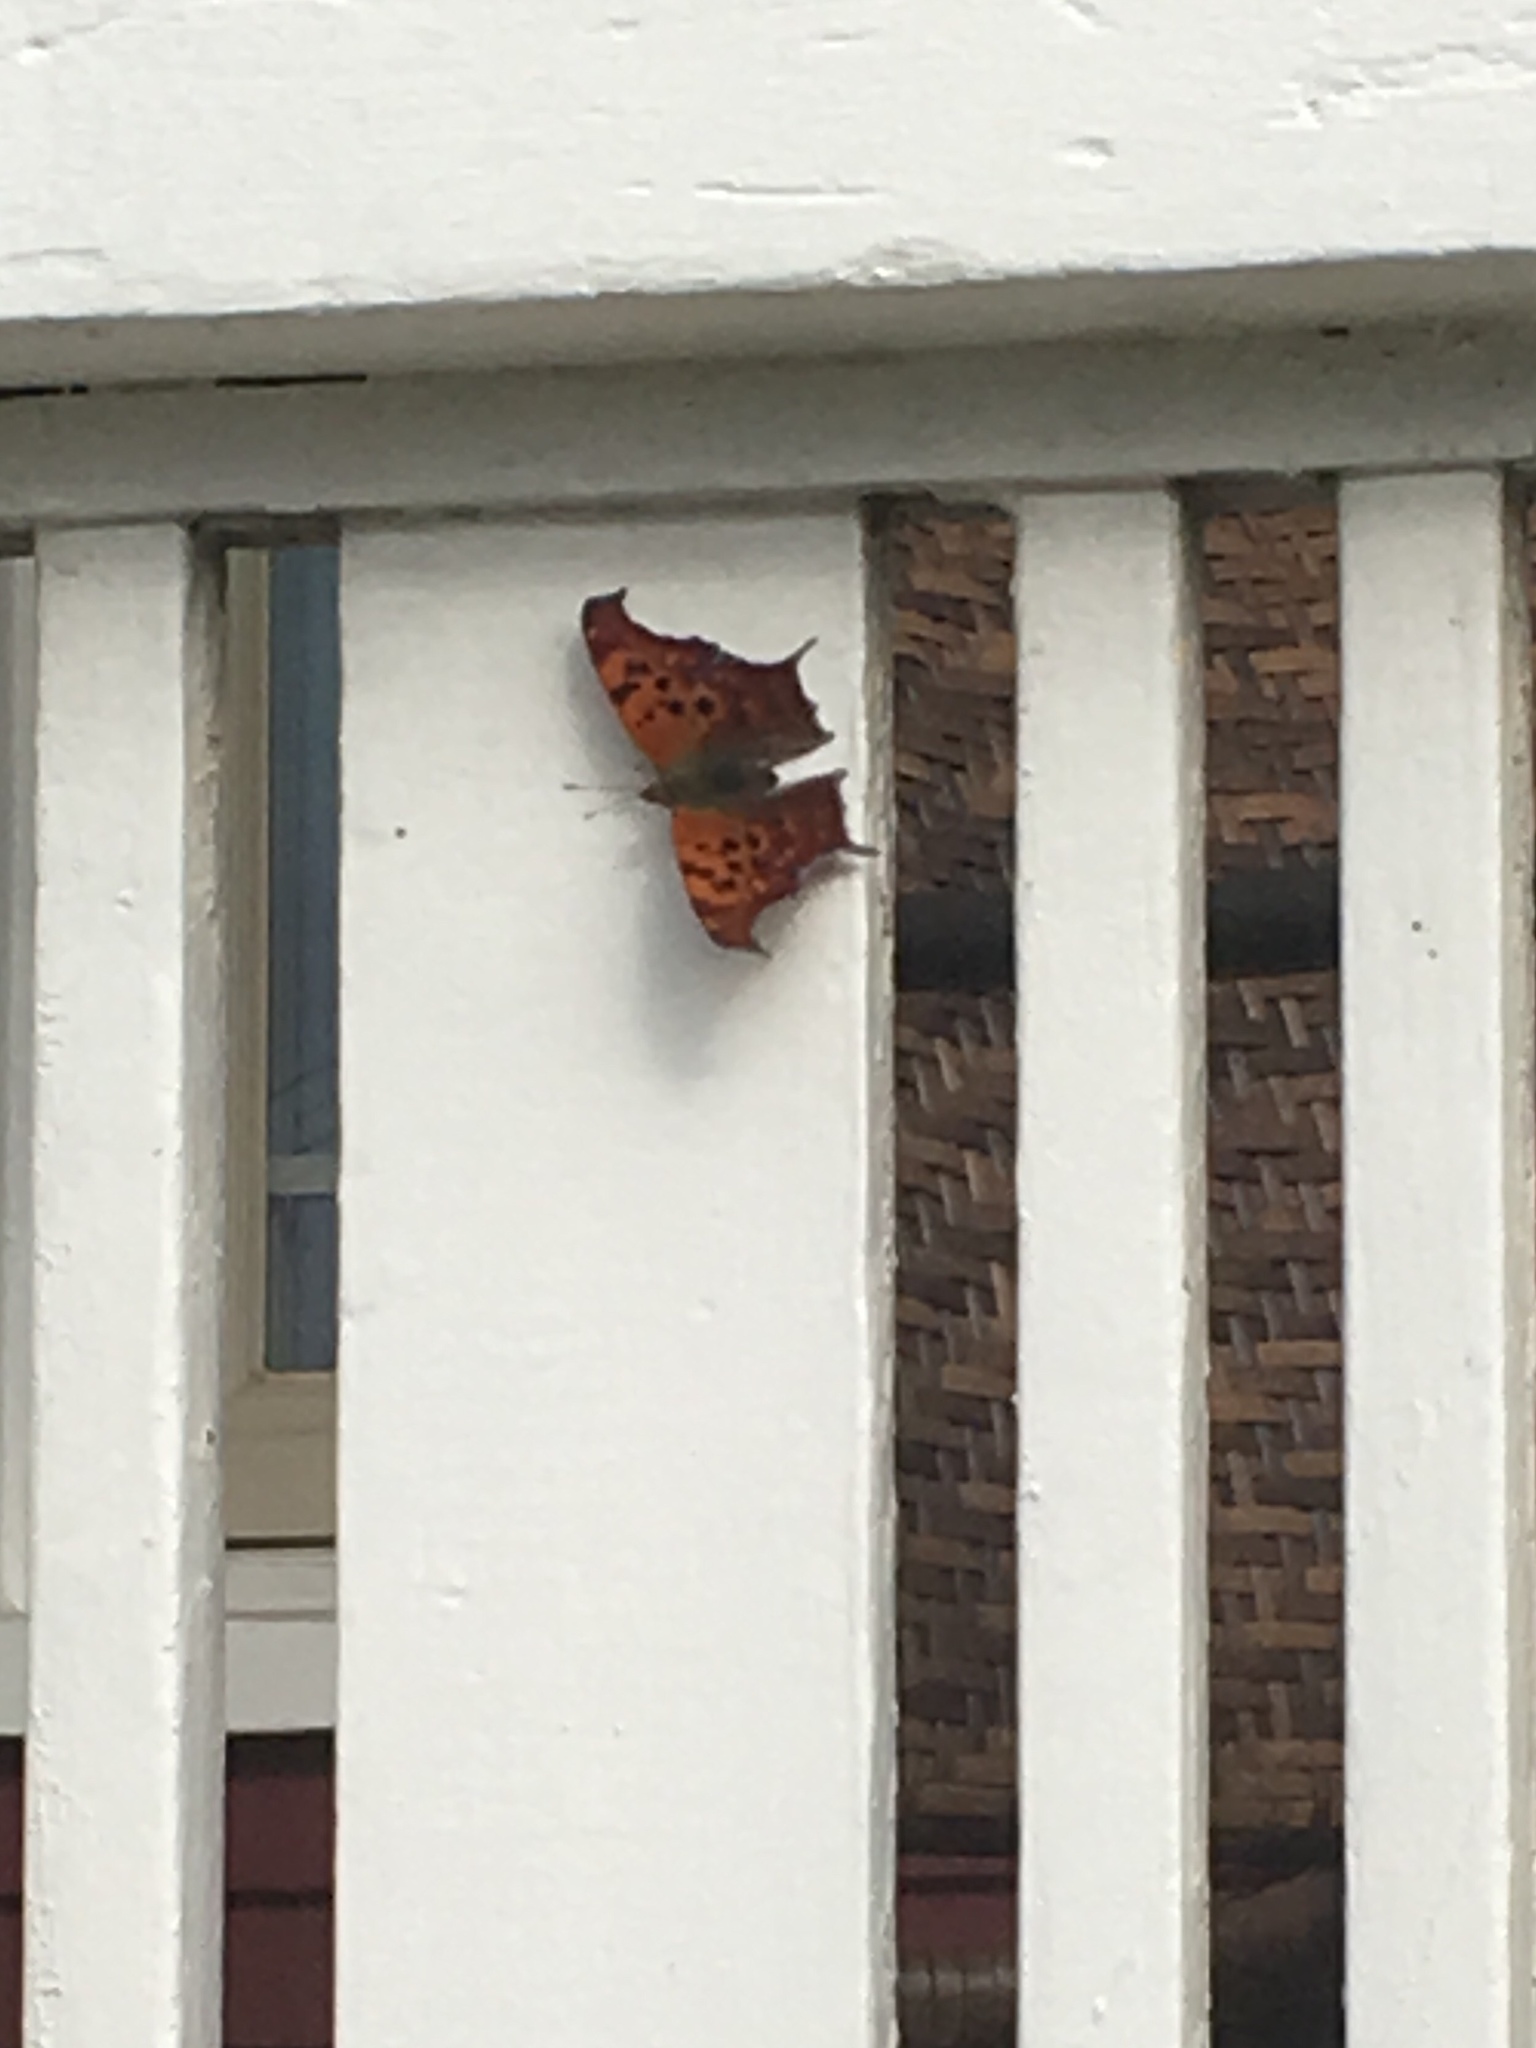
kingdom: Animalia
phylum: Arthropoda
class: Insecta
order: Lepidoptera
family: Nymphalidae
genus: Polygonia
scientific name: Polygonia interrogationis
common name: Question mark
